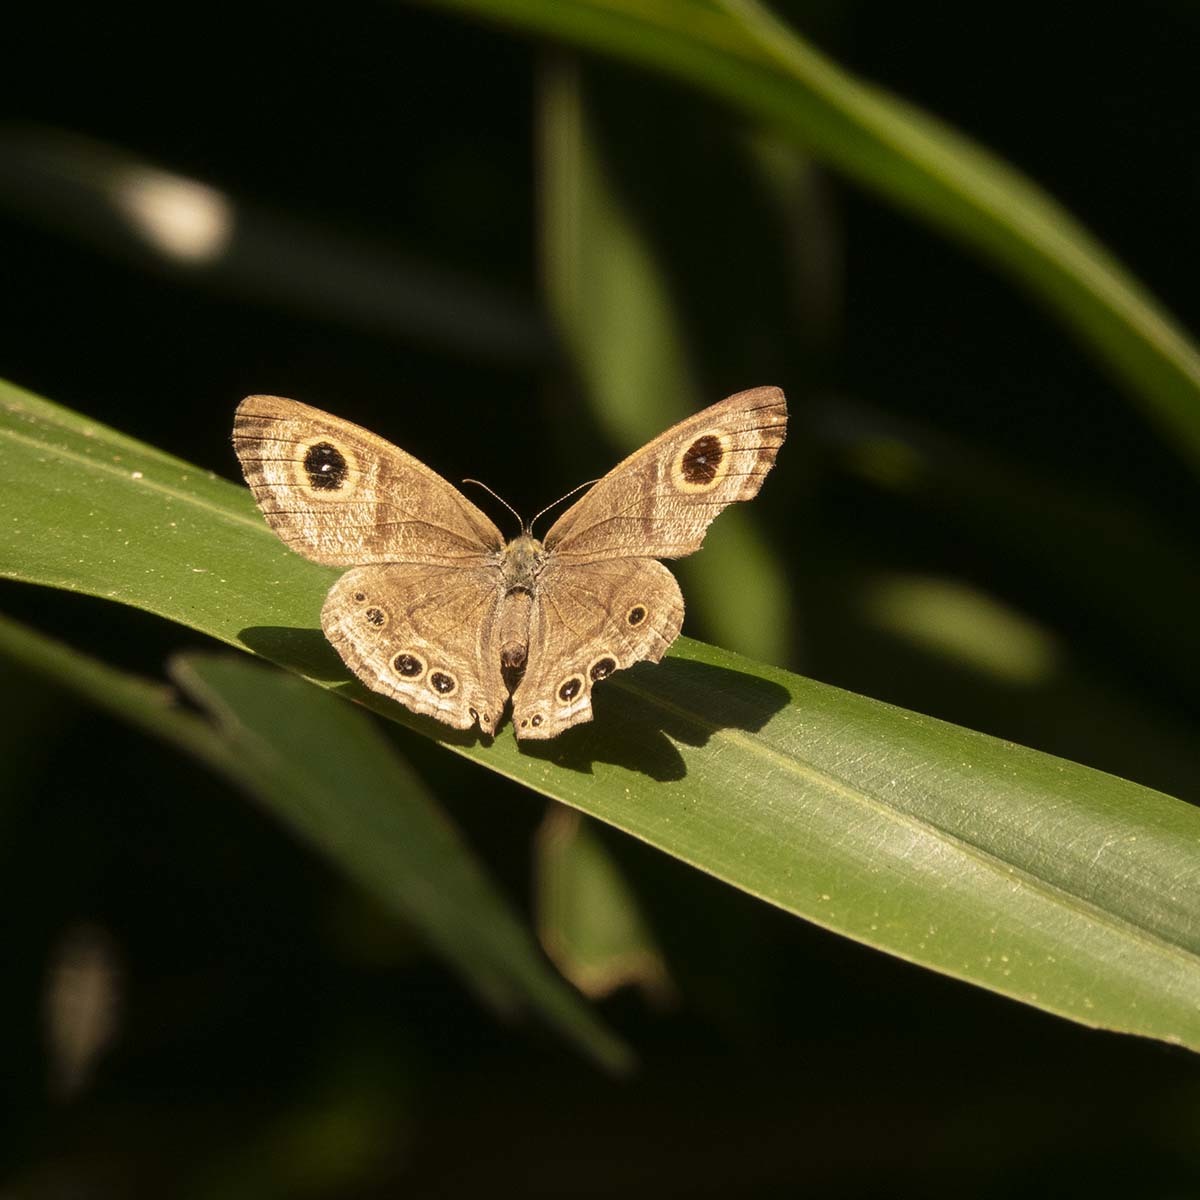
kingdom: Animalia
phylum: Arthropoda
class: Insecta
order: Lepidoptera
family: Nymphalidae
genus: Ypthima
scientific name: Ypthima baldus
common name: Common five-ring
